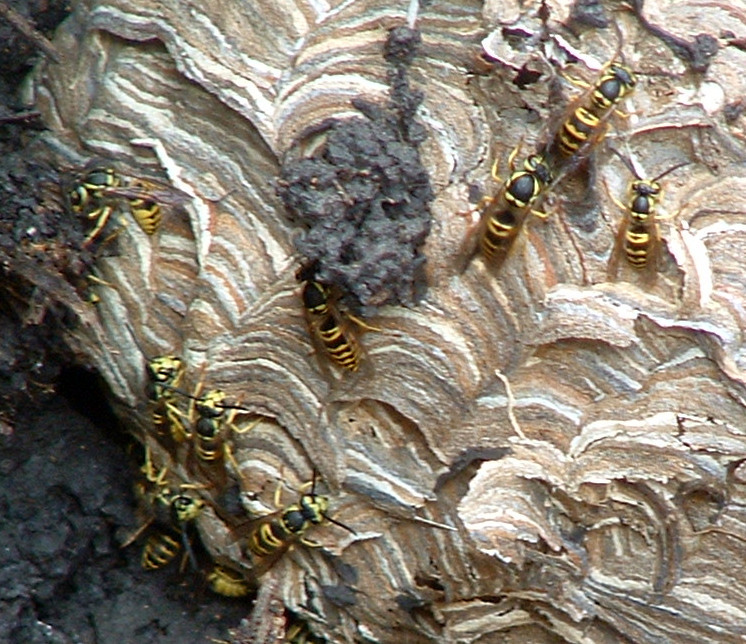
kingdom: Animalia
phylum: Arthropoda
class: Insecta
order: Hymenoptera
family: Vespidae
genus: Vespula
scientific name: Vespula maculifrons
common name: Eastern yellowjacket
